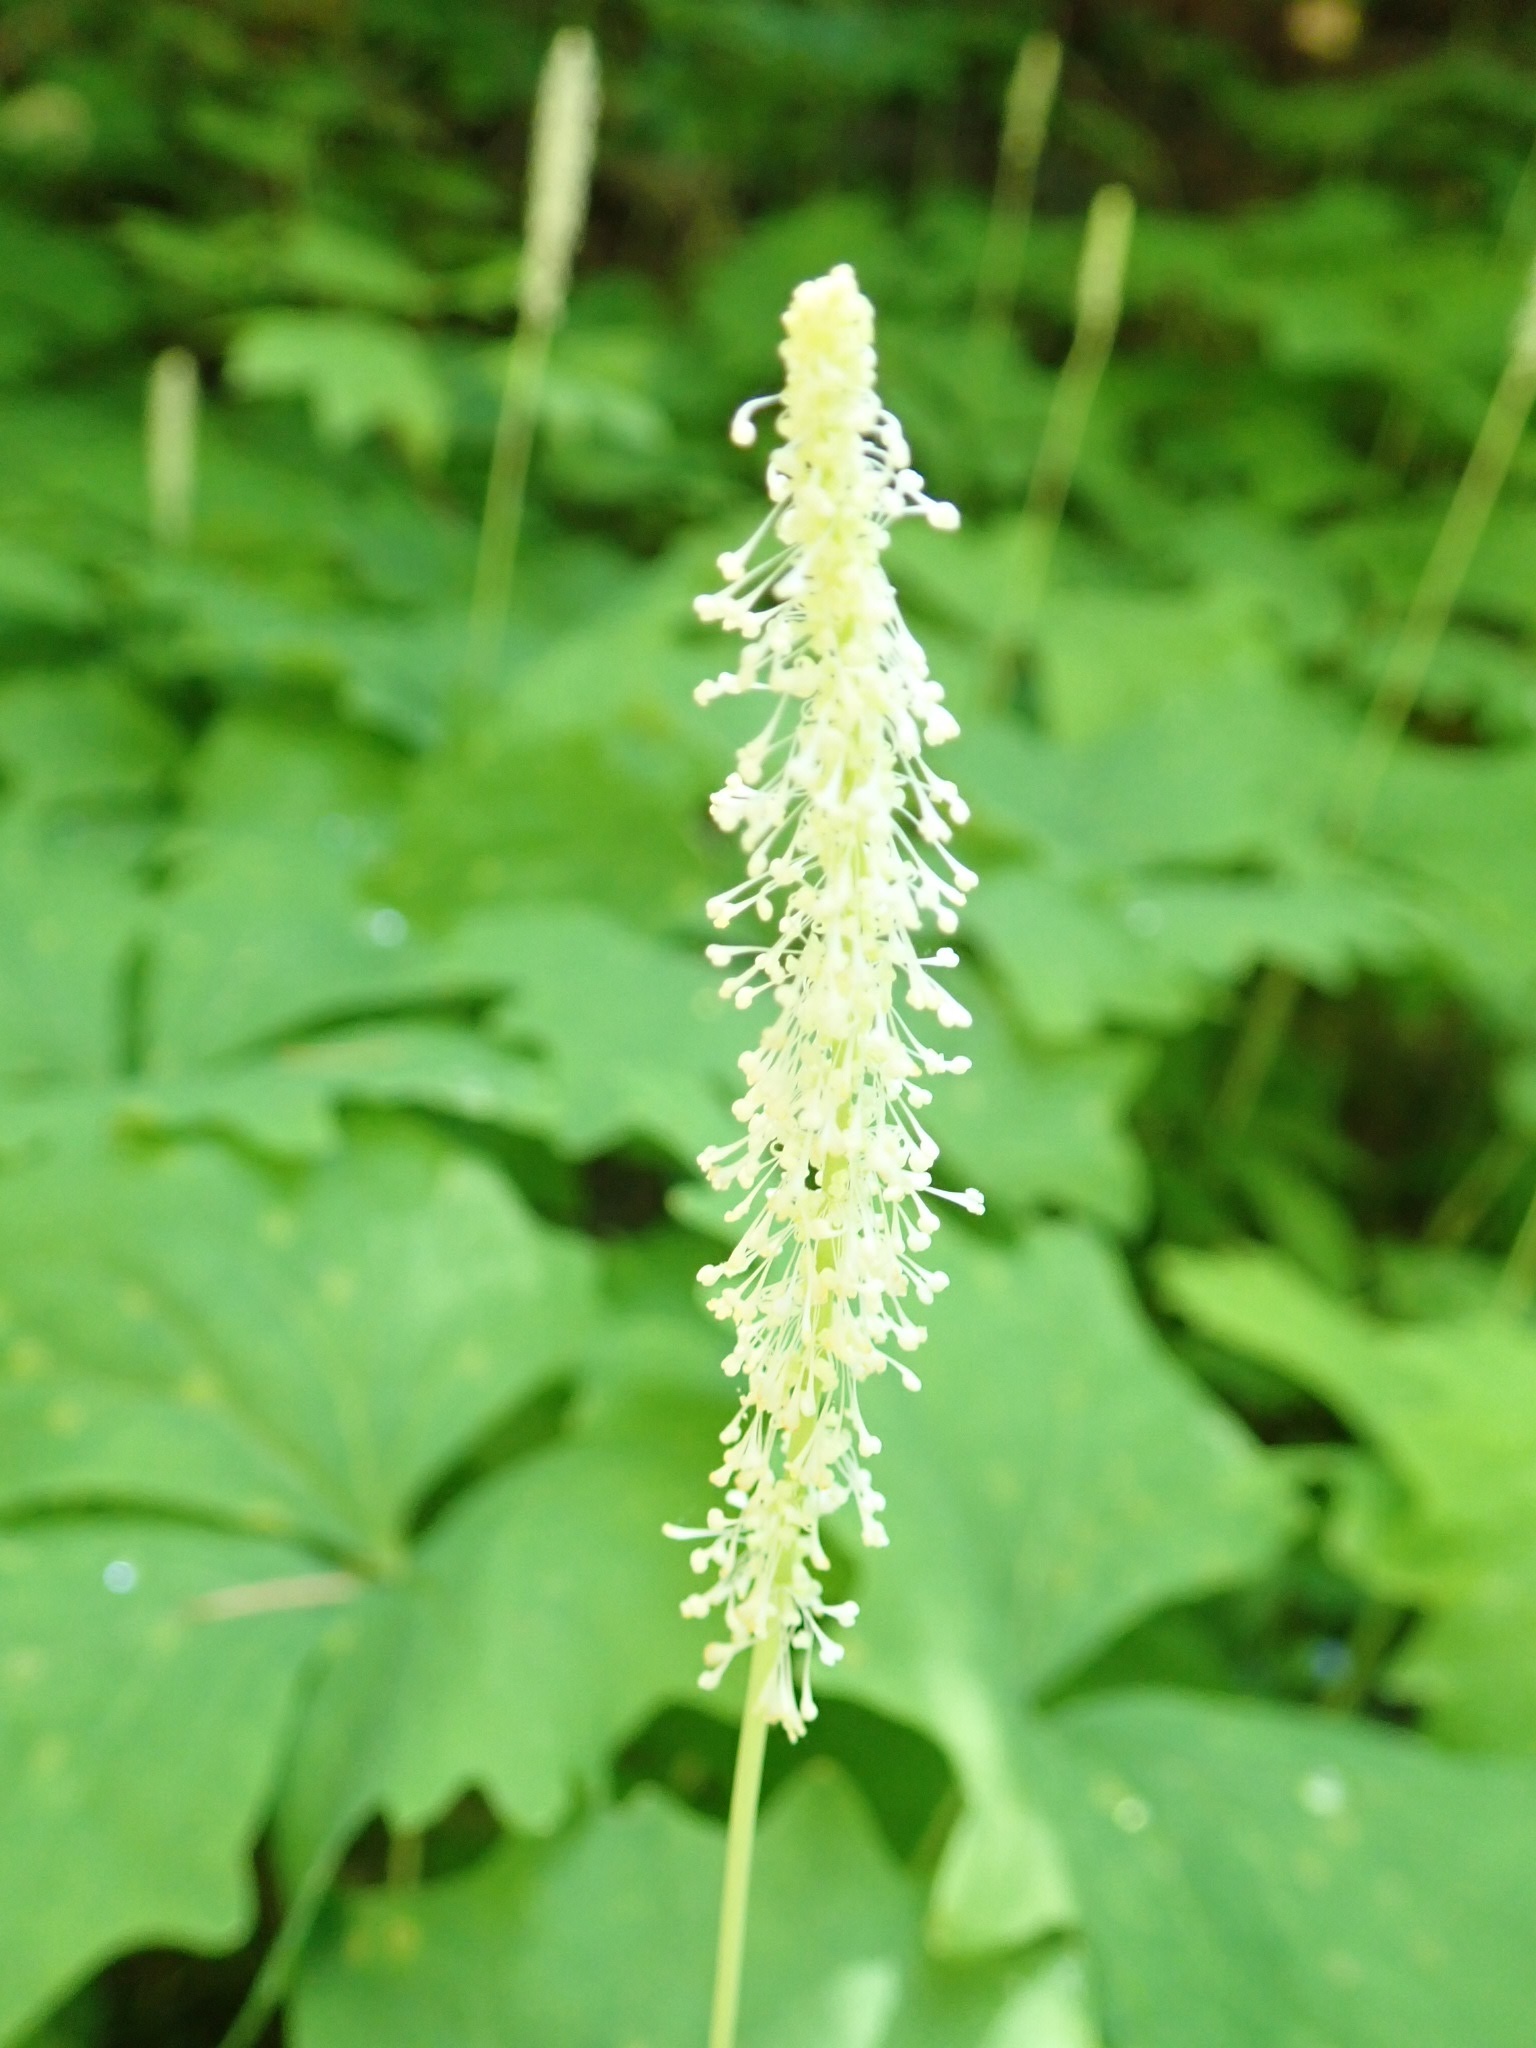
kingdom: Plantae
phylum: Tracheophyta
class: Magnoliopsida
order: Ranunculales
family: Berberidaceae
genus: Achlys
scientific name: Achlys triphylla
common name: Vanilla-leaf
